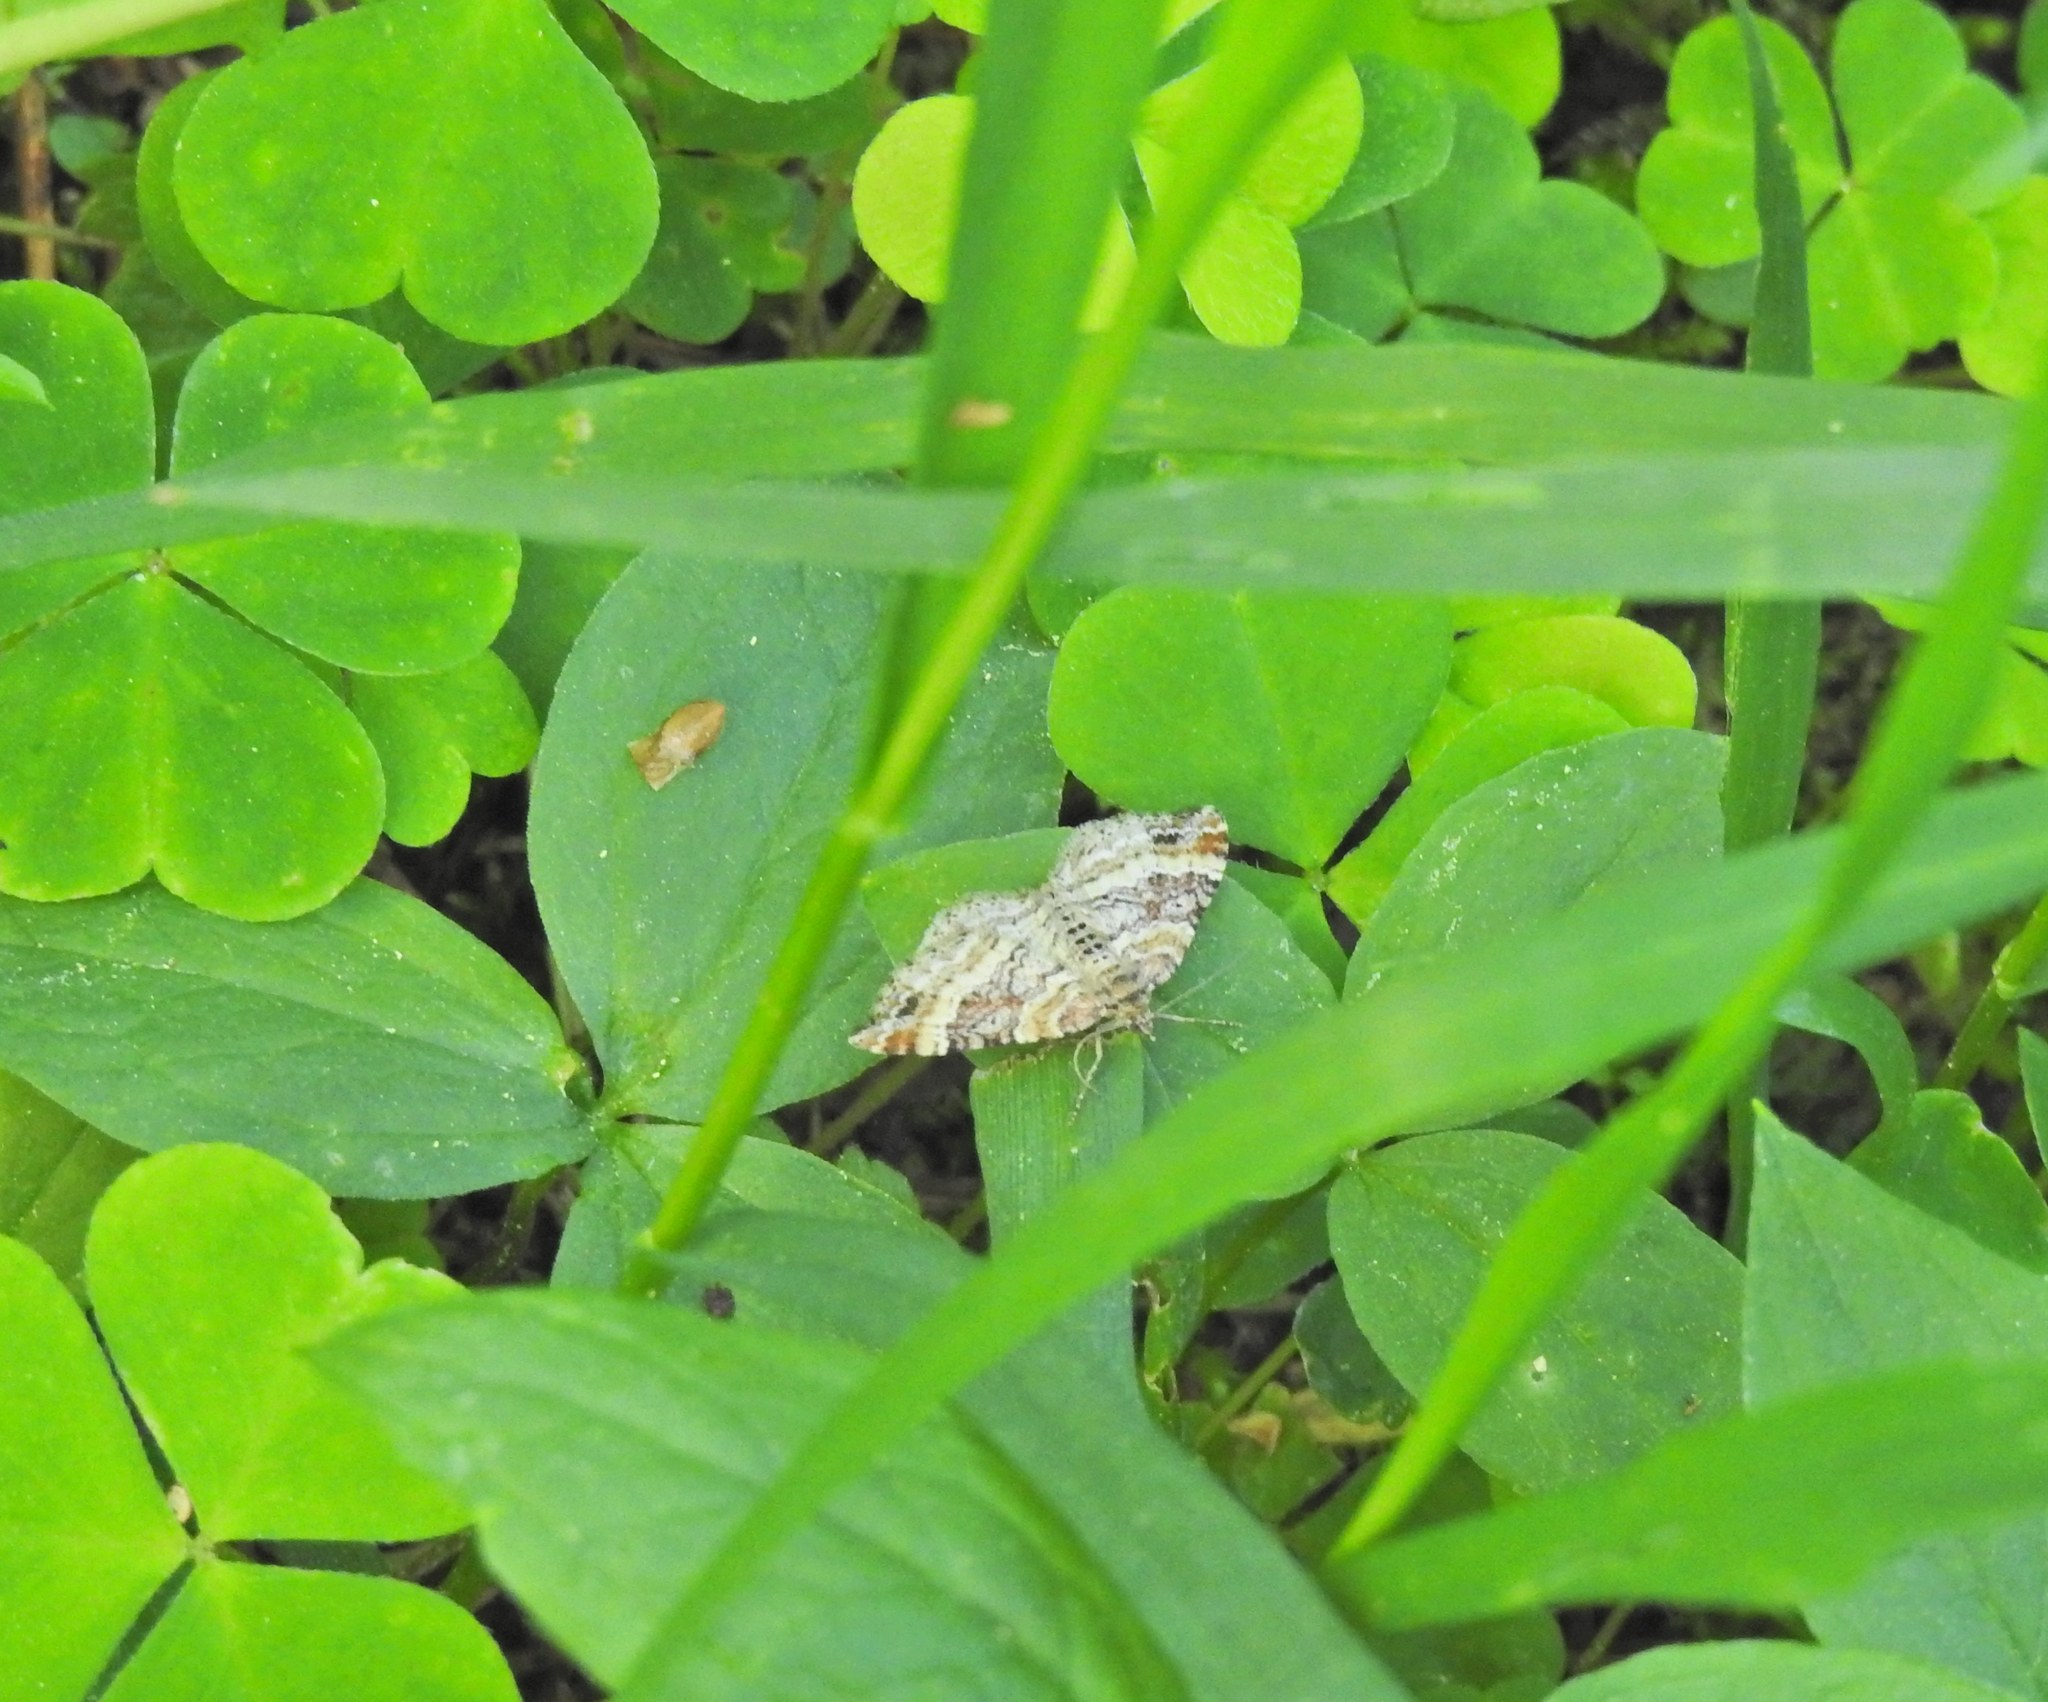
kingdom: Animalia
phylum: Arthropoda
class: Insecta
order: Lepidoptera
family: Geometridae
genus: Xanthorhoe
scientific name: Xanthorhoe spadicearia
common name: Red twin-spot carpet
